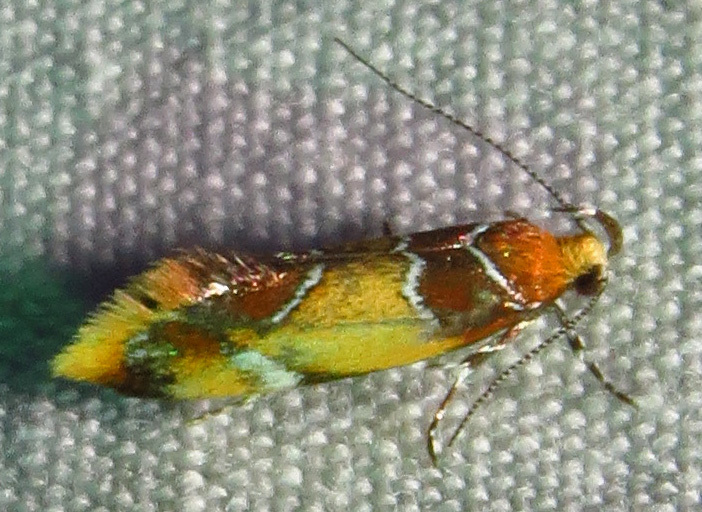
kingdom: Animalia
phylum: Arthropoda
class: Insecta
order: Lepidoptera
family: Oecophoridae
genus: Callima
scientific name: Callima argenticinctella
